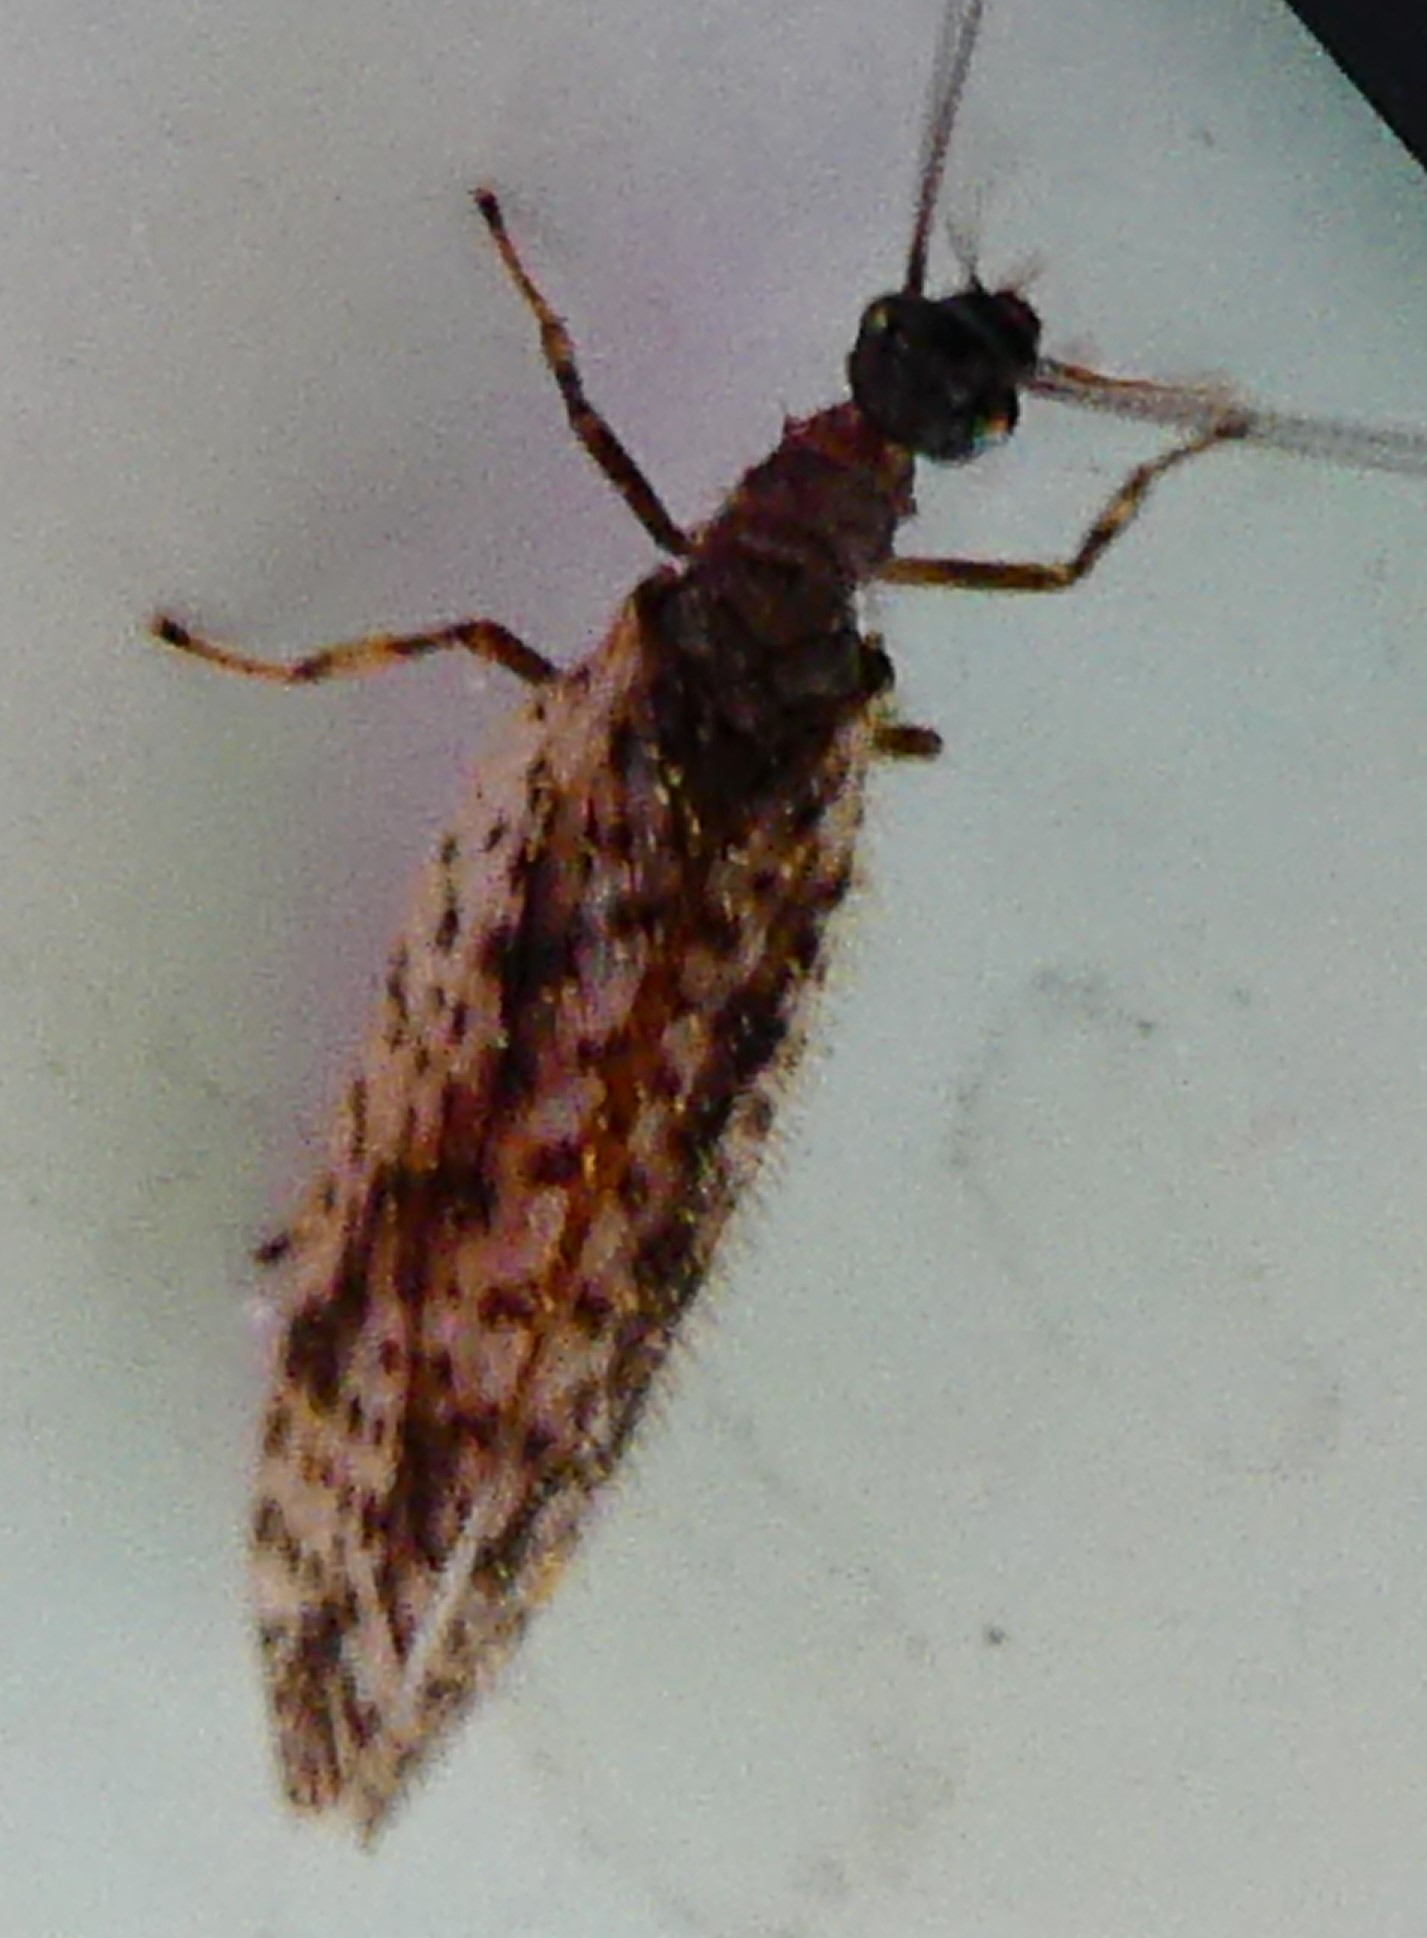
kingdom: Animalia
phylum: Arthropoda
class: Insecta
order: Neuroptera
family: Hemerobiidae
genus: Micromus
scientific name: Micromus variegatus
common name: Brown lacewing
